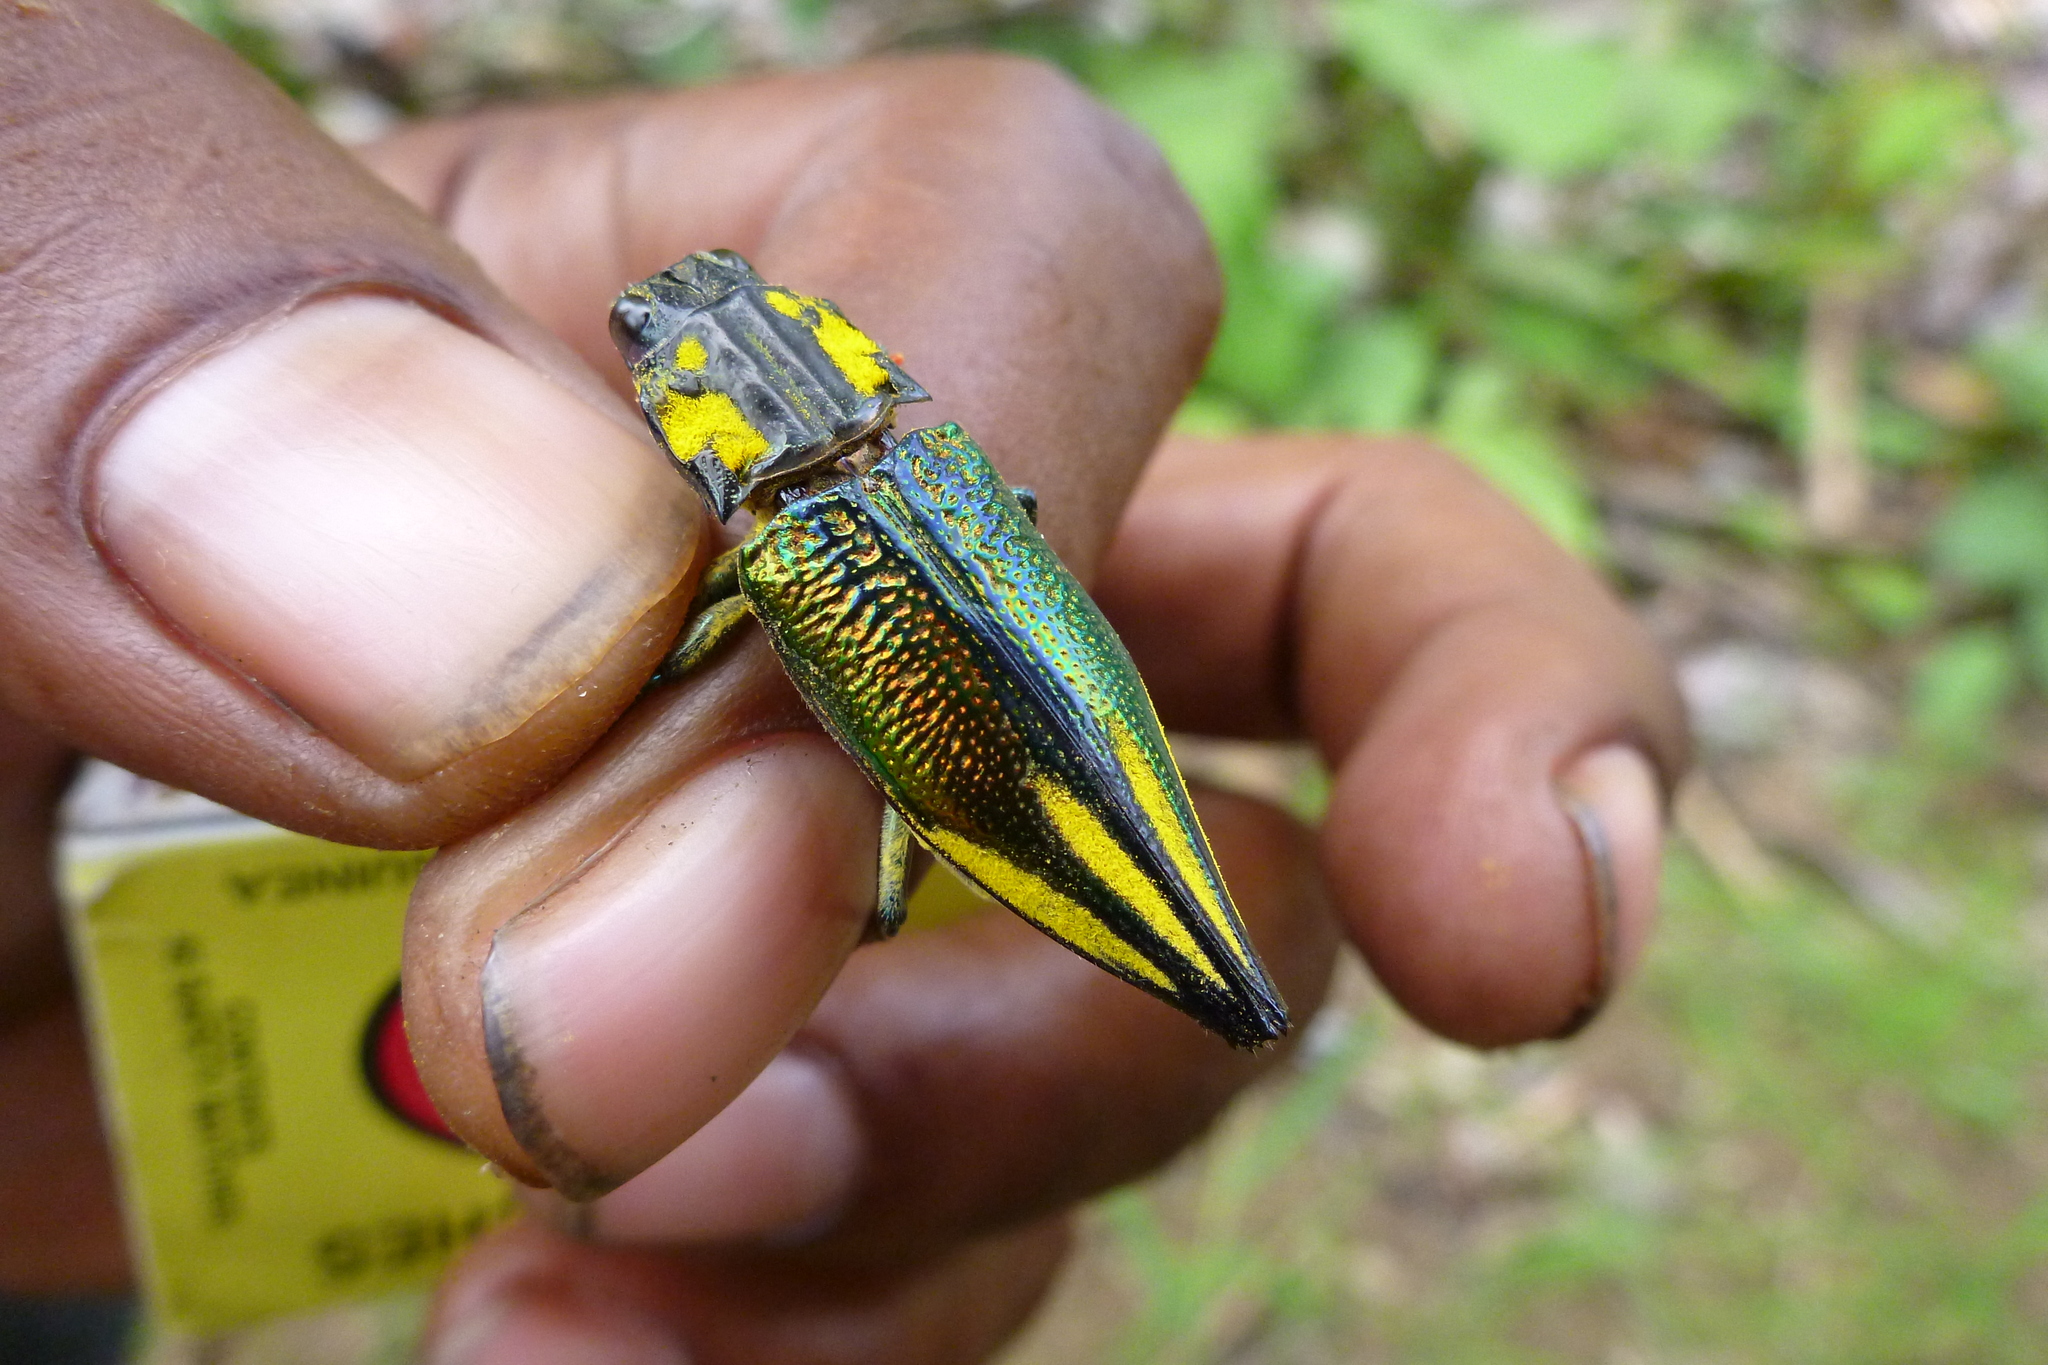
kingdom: Animalia
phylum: Arthropoda
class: Insecta
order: Coleoptera
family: Buprestidae
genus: Cyphogastra
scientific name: Cyphogastra farinosa
